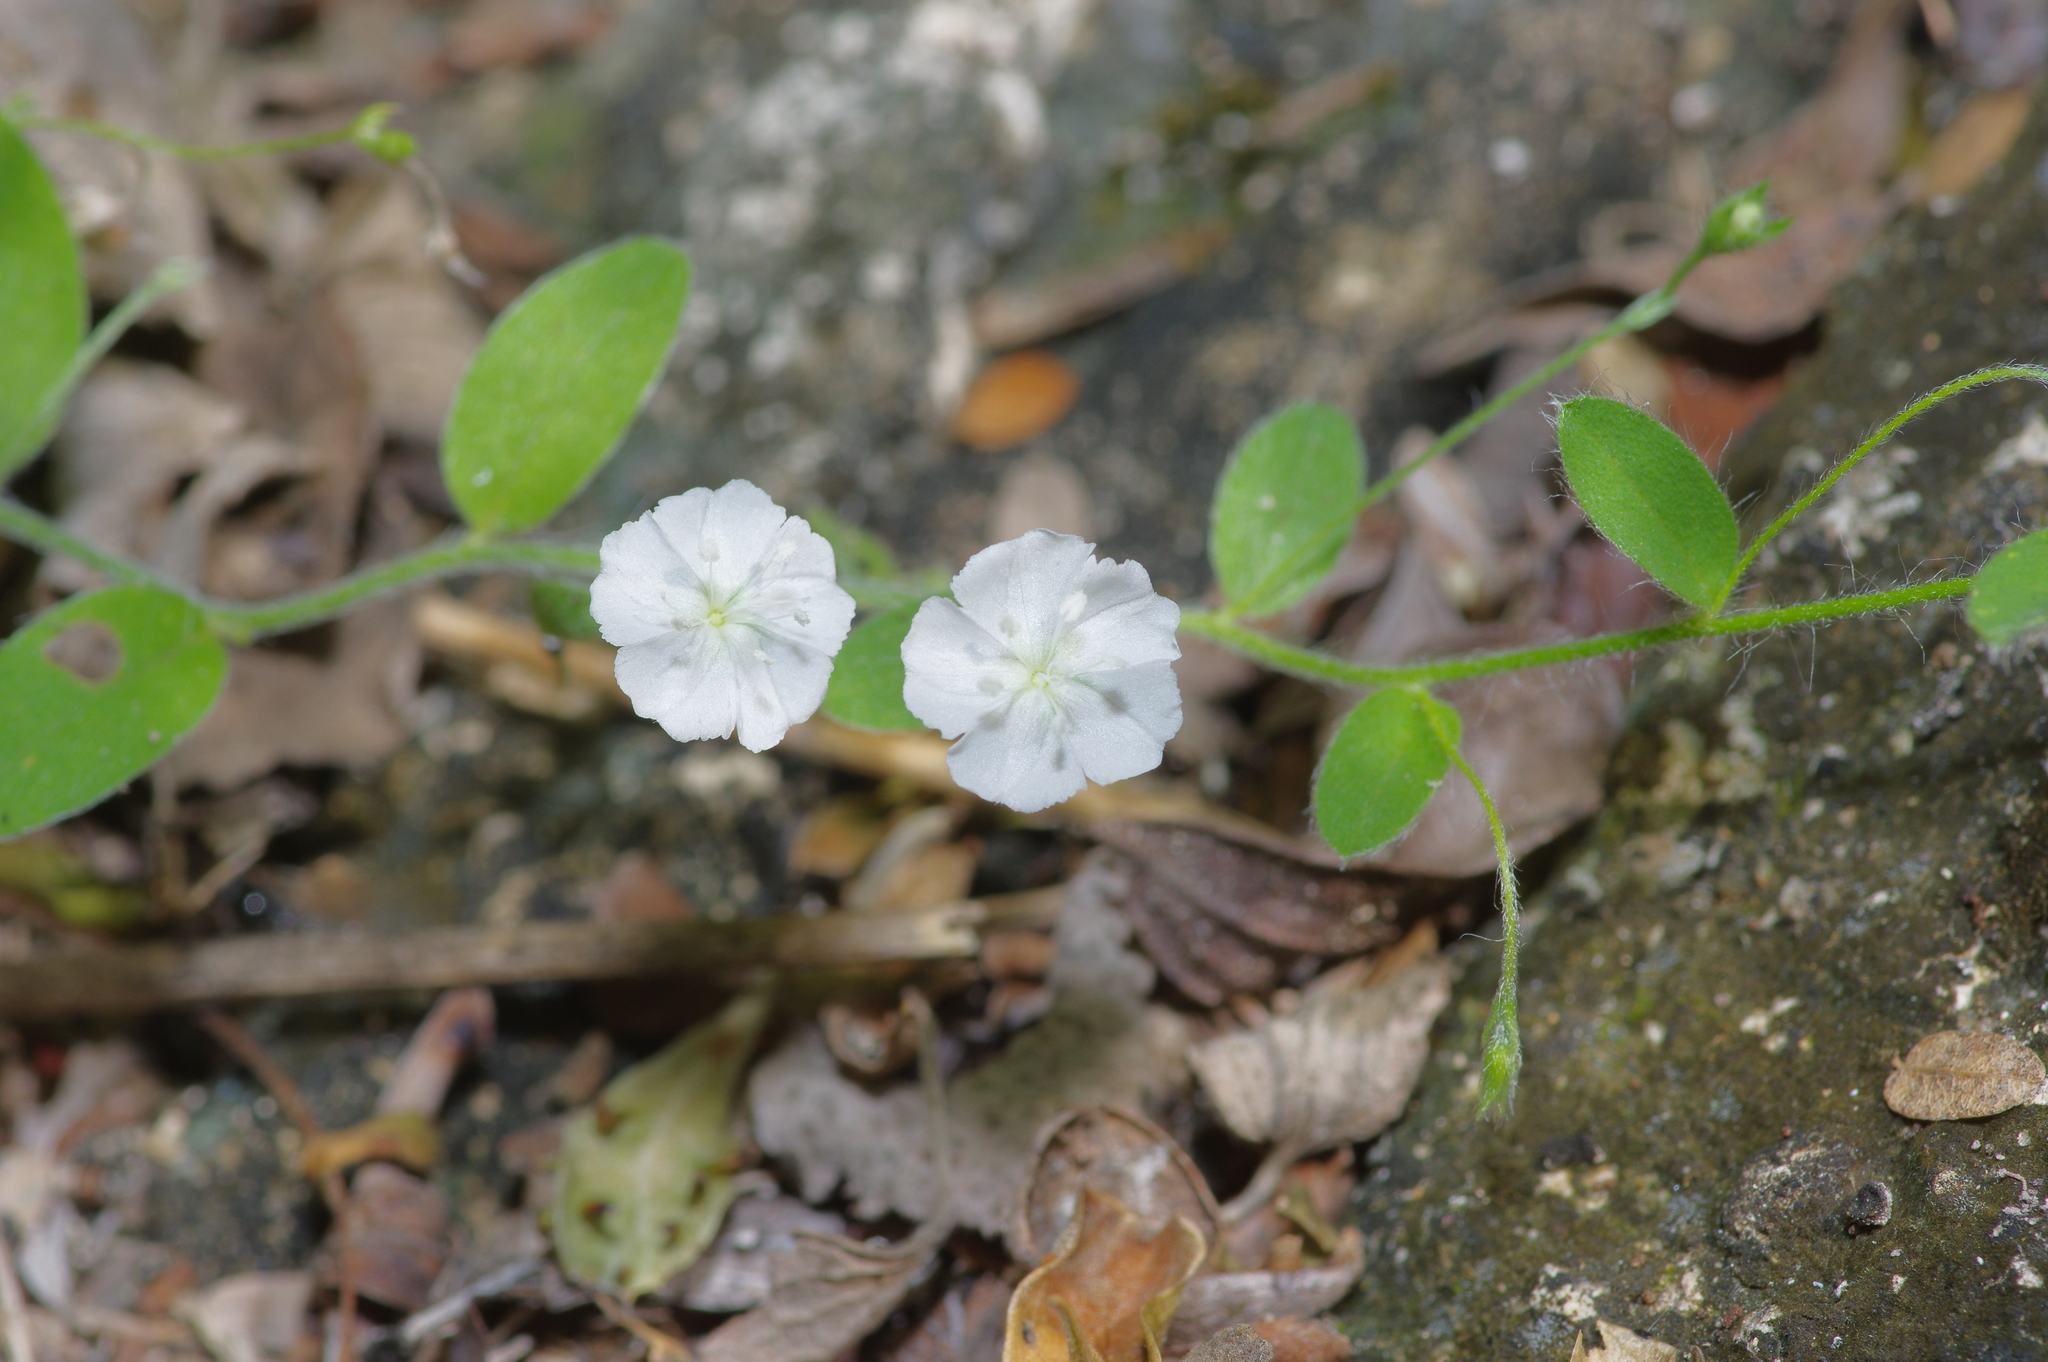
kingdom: Plantae
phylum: Tracheophyta
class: Magnoliopsida
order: Solanales
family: Convolvulaceae
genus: Evolvulus
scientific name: Evolvulus alsinoides
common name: Slender dwarf morning-glory
